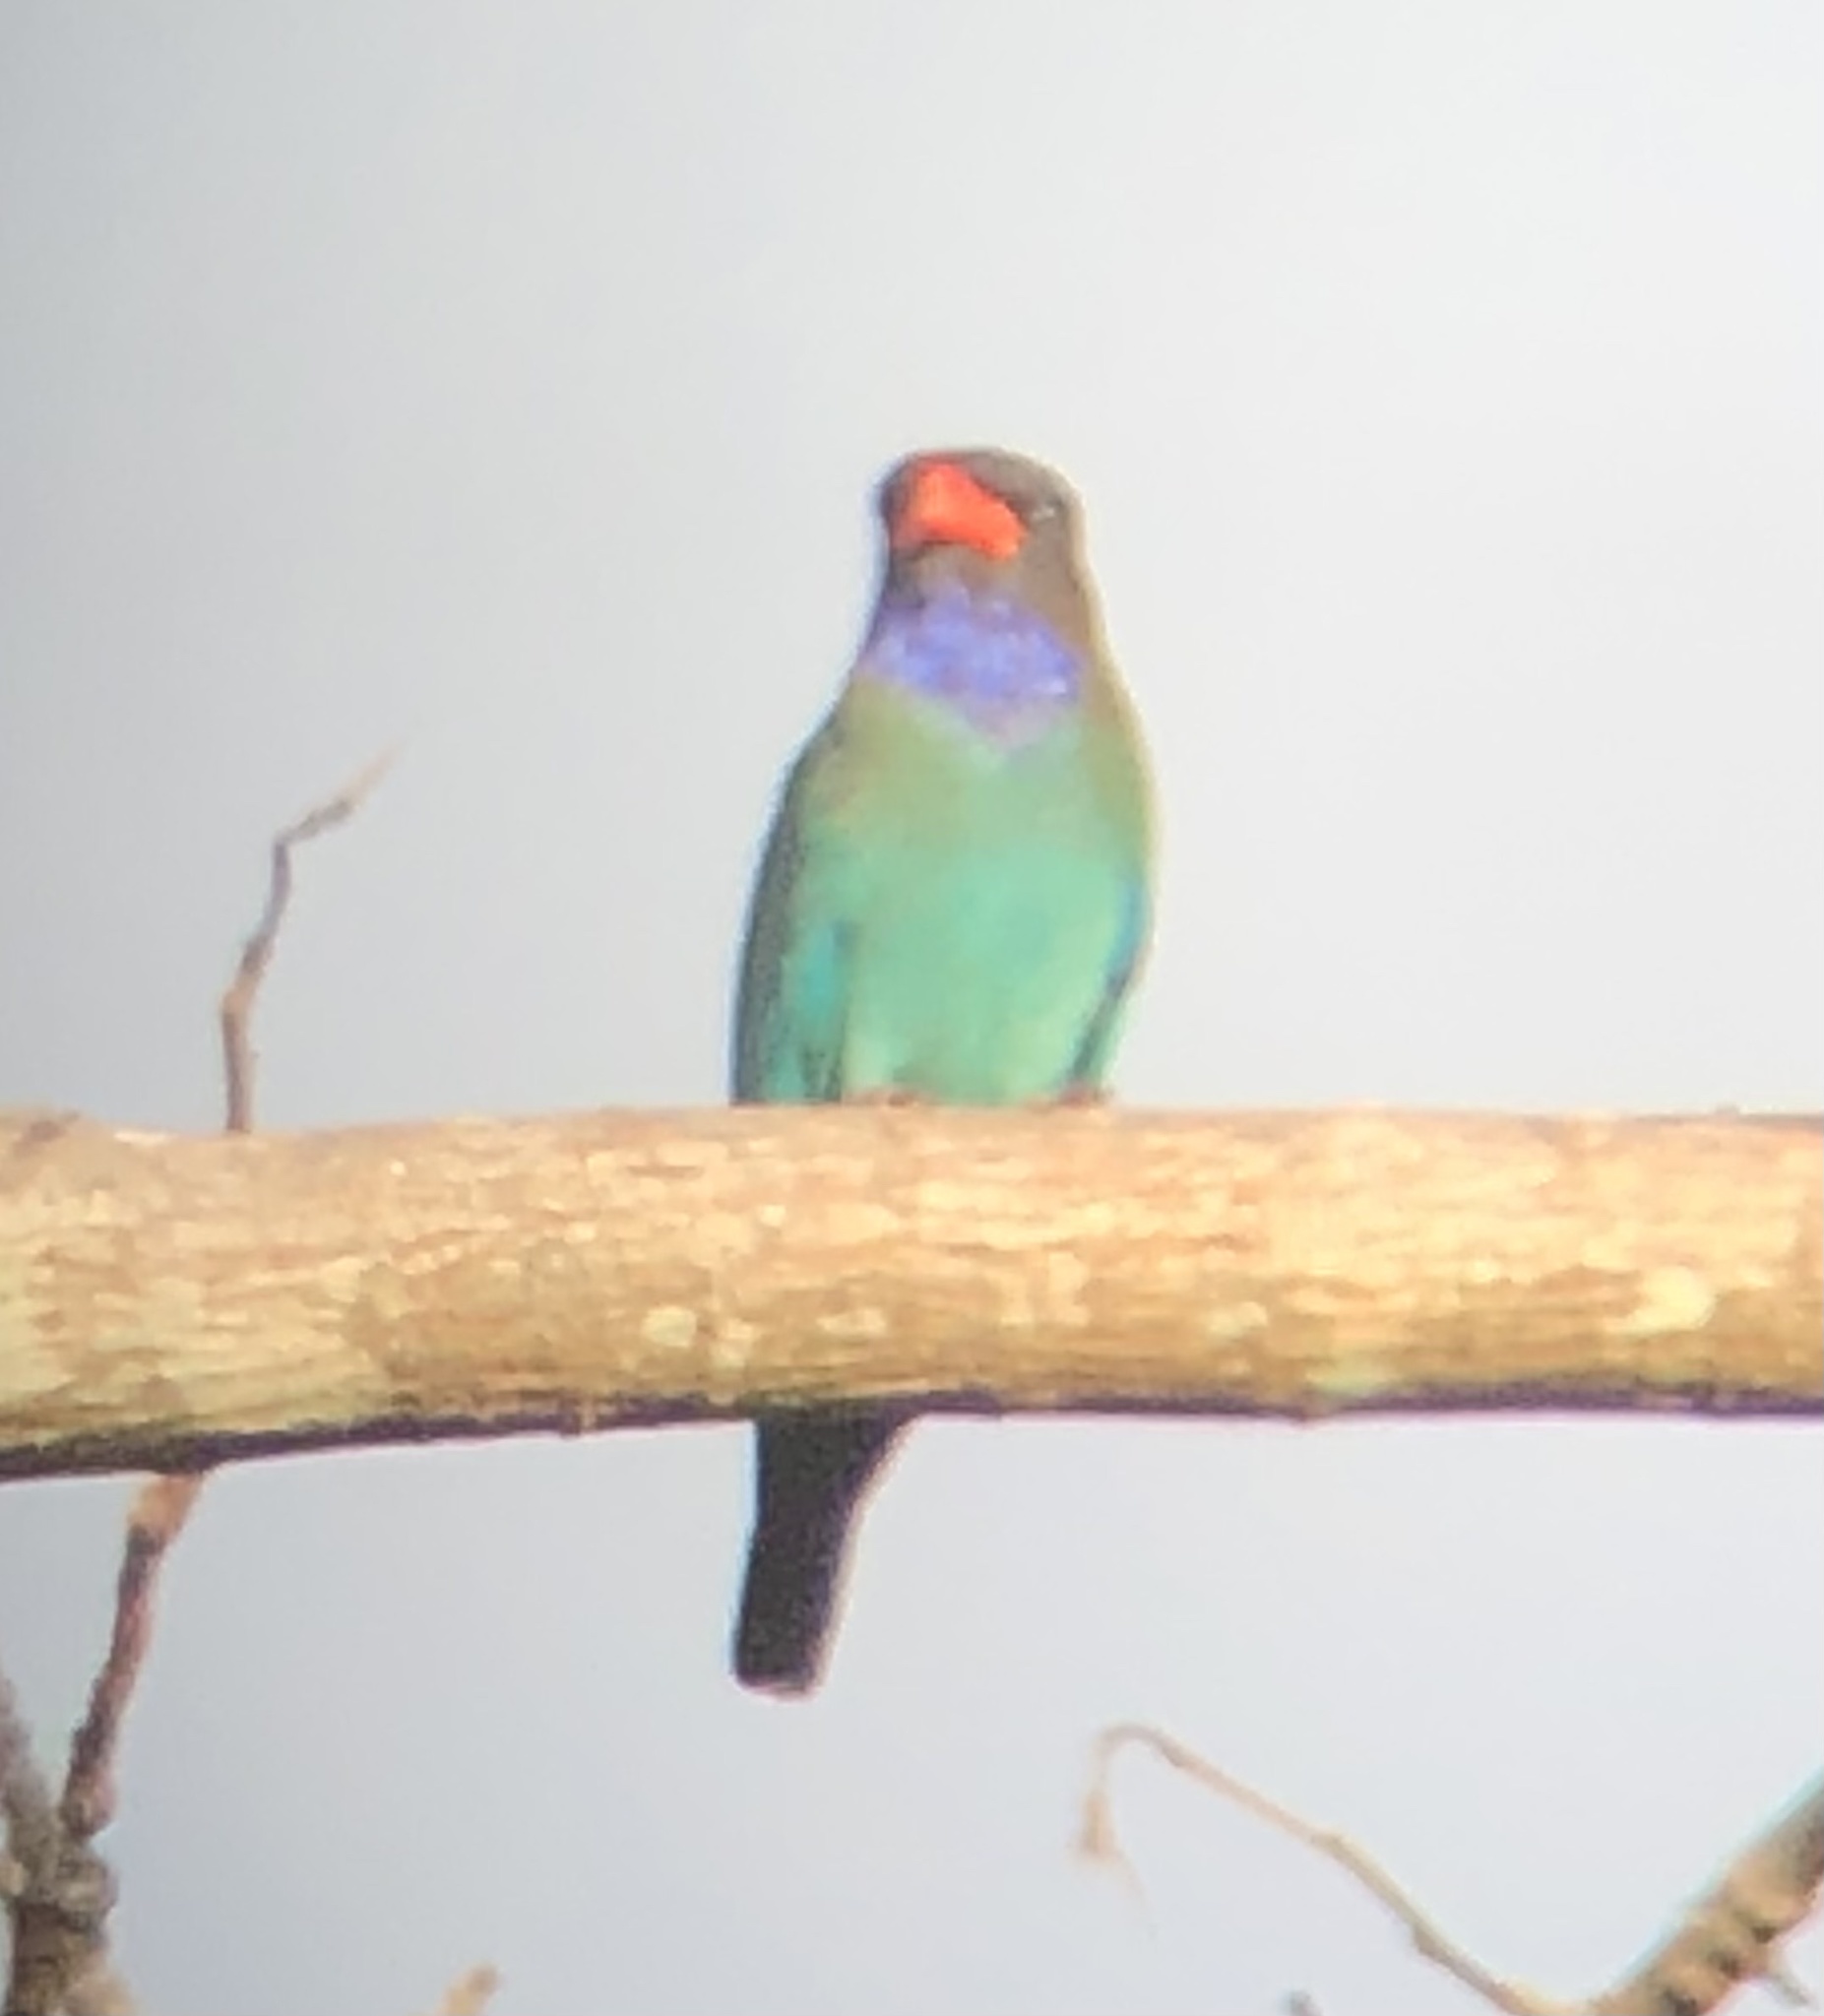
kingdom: Animalia
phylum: Chordata
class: Aves
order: Coraciiformes
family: Coraciidae
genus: Eurystomus
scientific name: Eurystomus orientalis
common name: Oriental dollarbird
